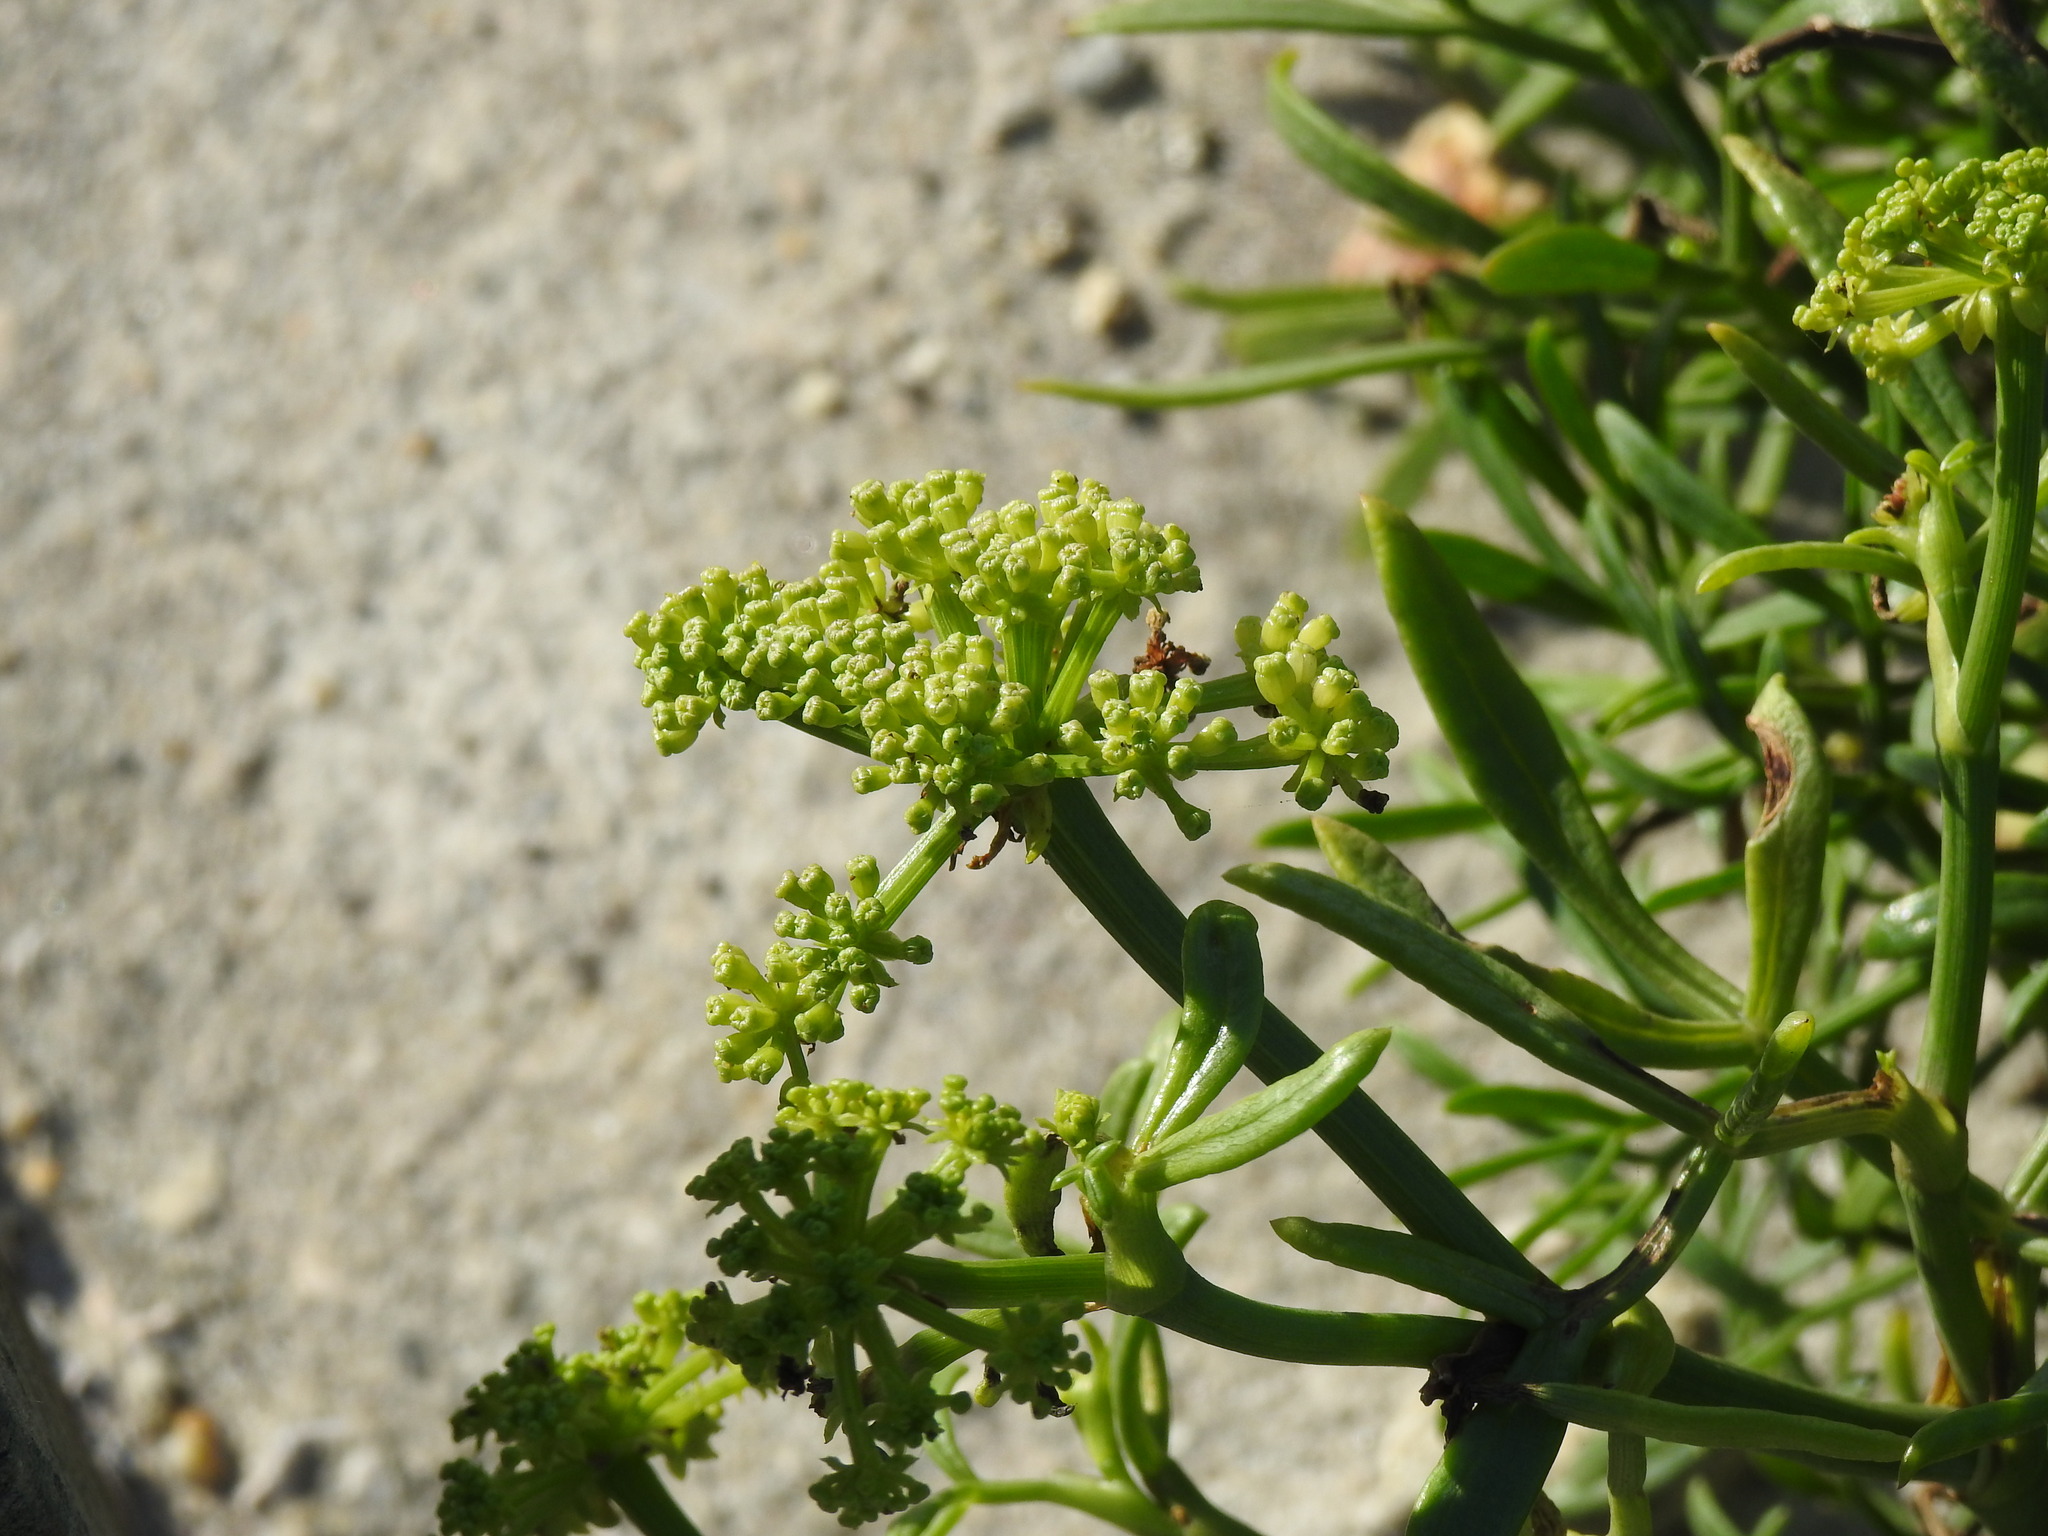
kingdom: Plantae
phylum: Tracheophyta
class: Magnoliopsida
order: Apiales
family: Apiaceae
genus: Crithmum
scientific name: Crithmum maritimum
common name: Rock samphire
